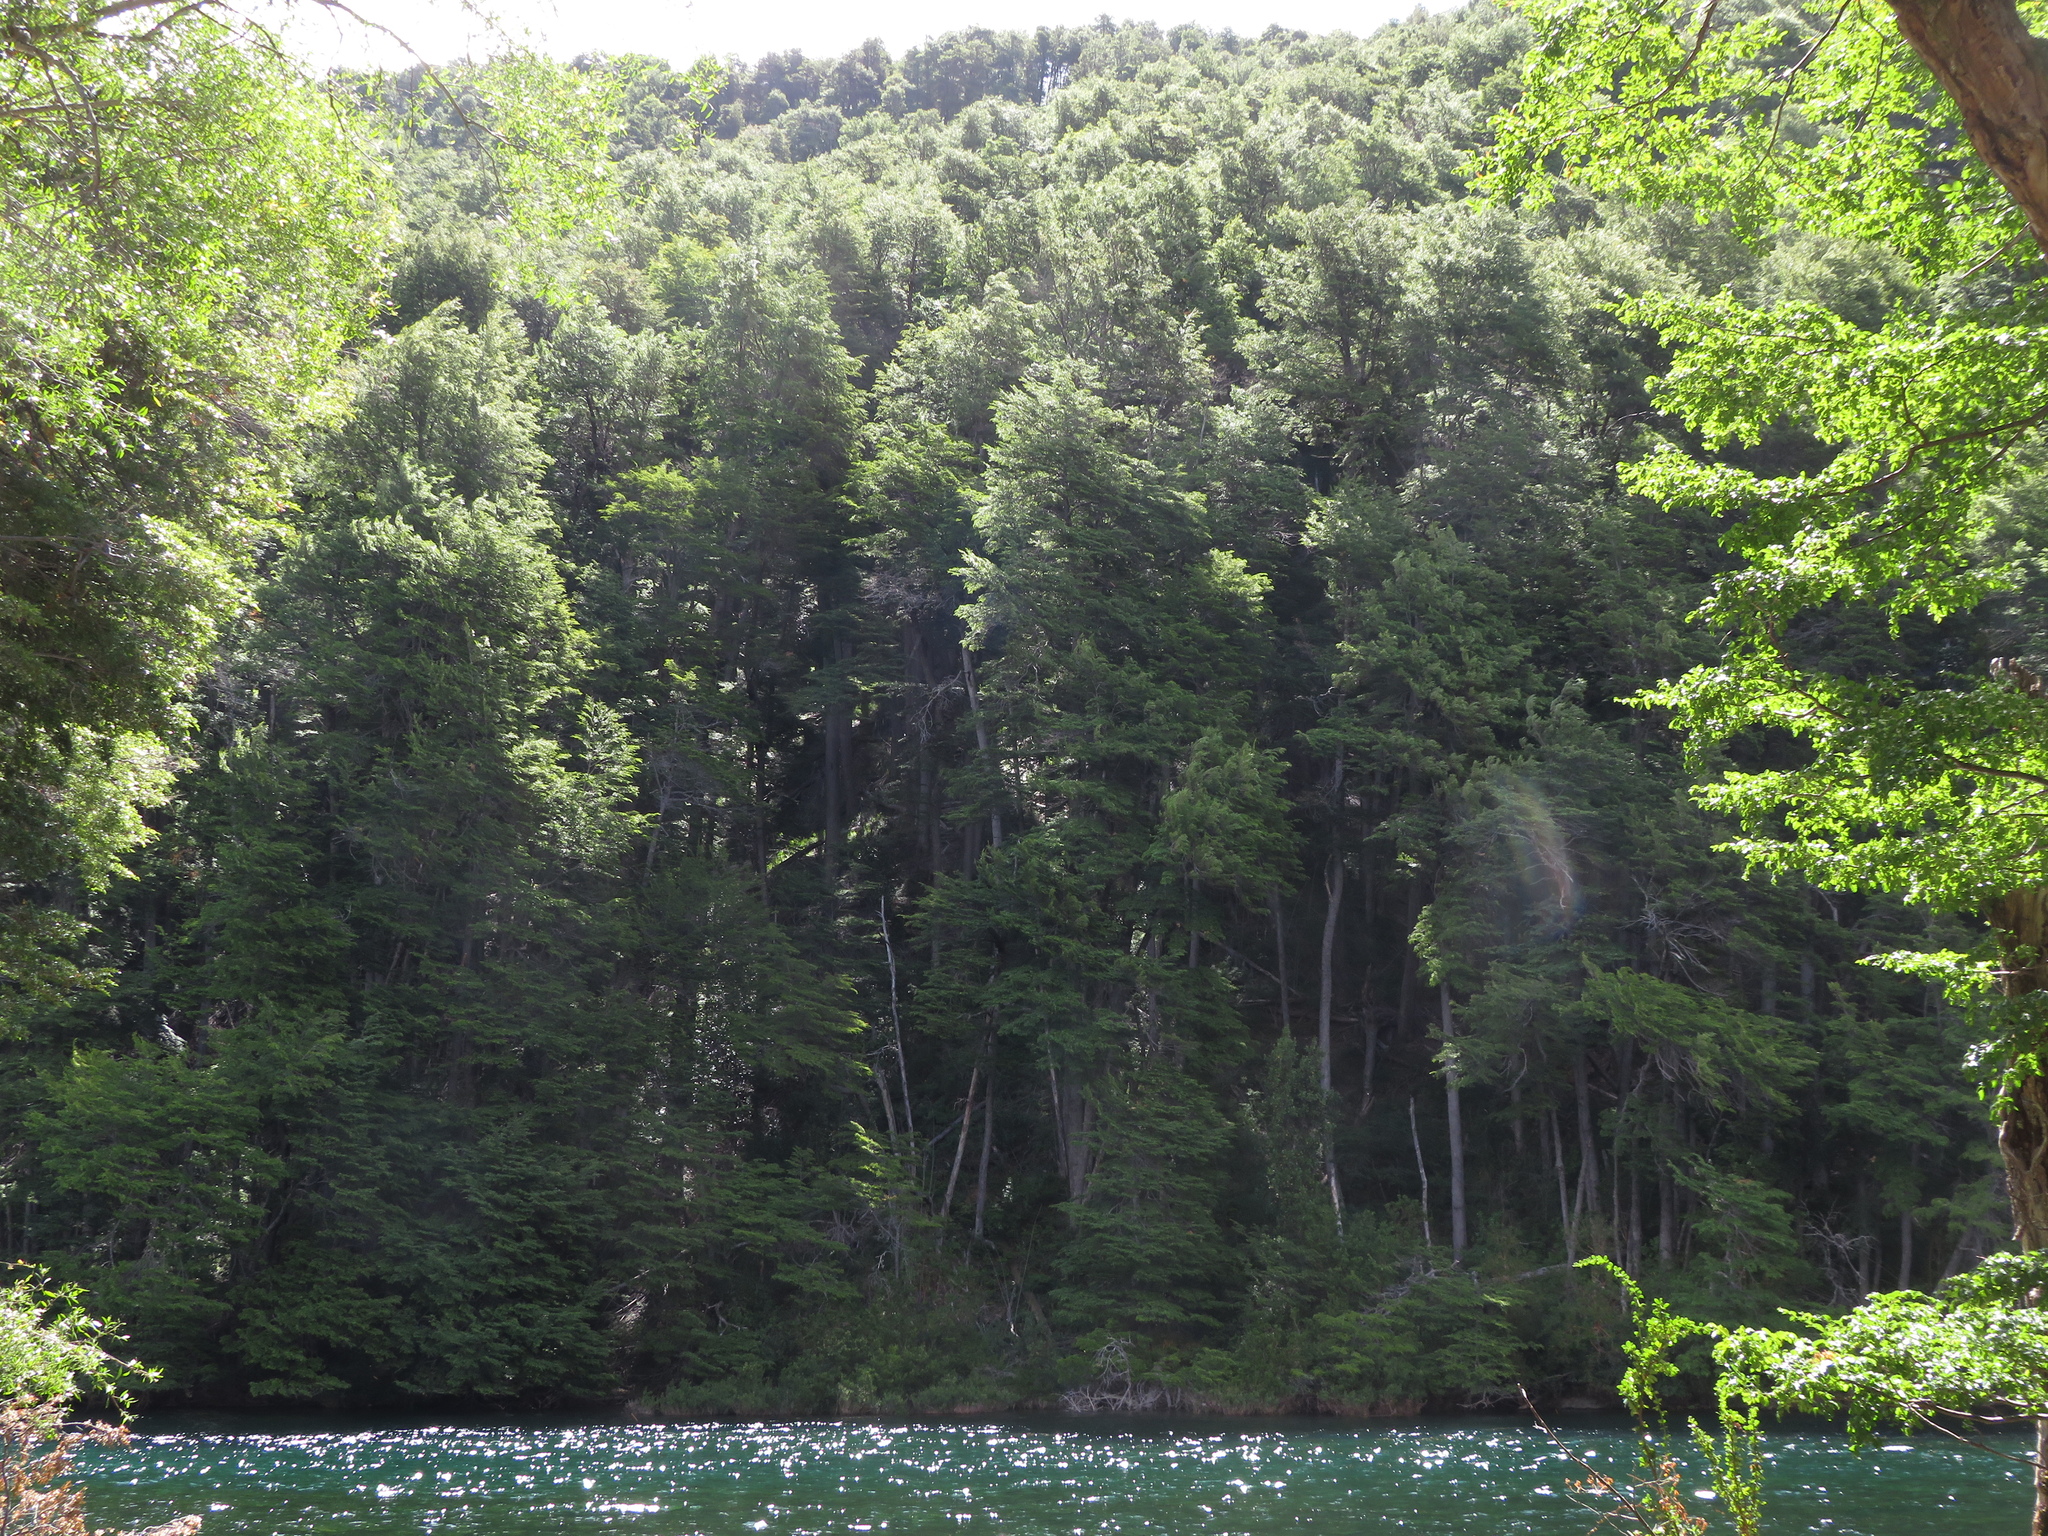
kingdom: Plantae
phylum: Tracheophyta
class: Magnoliopsida
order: Fagales
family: Nothofagaceae
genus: Nothofagus
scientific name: Nothofagus dombeyi
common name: Coigue
